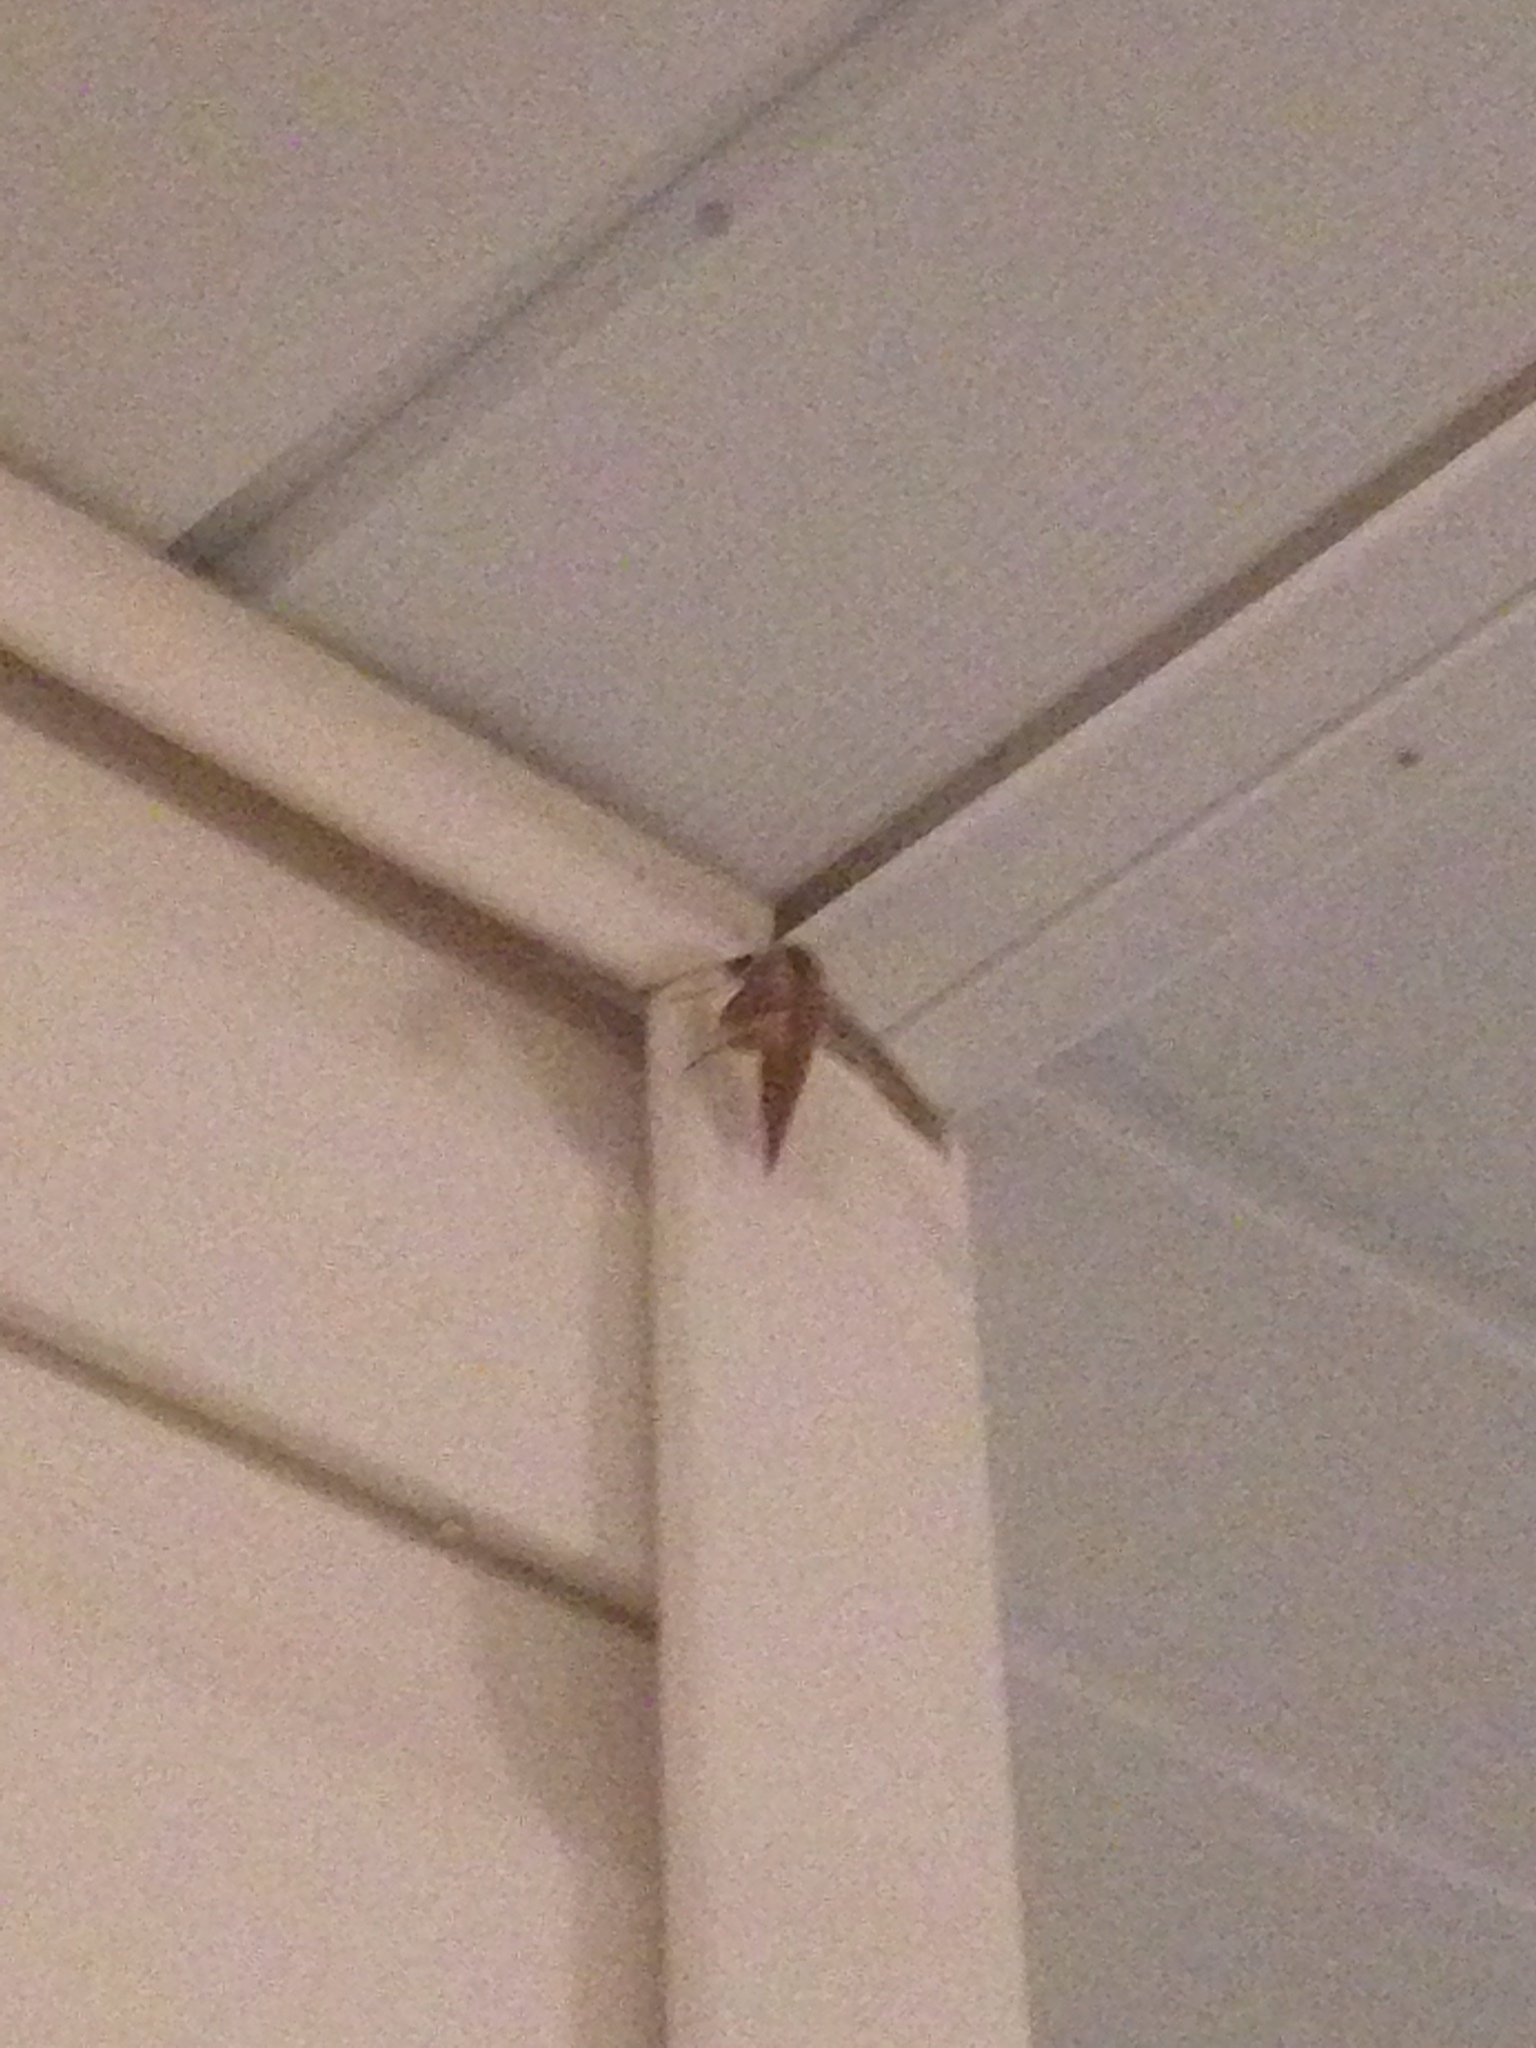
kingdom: Animalia
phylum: Arthropoda
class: Insecta
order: Lepidoptera
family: Sphingidae
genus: Xylophanes
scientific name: Xylophanes tersa
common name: Tersa sphinx
